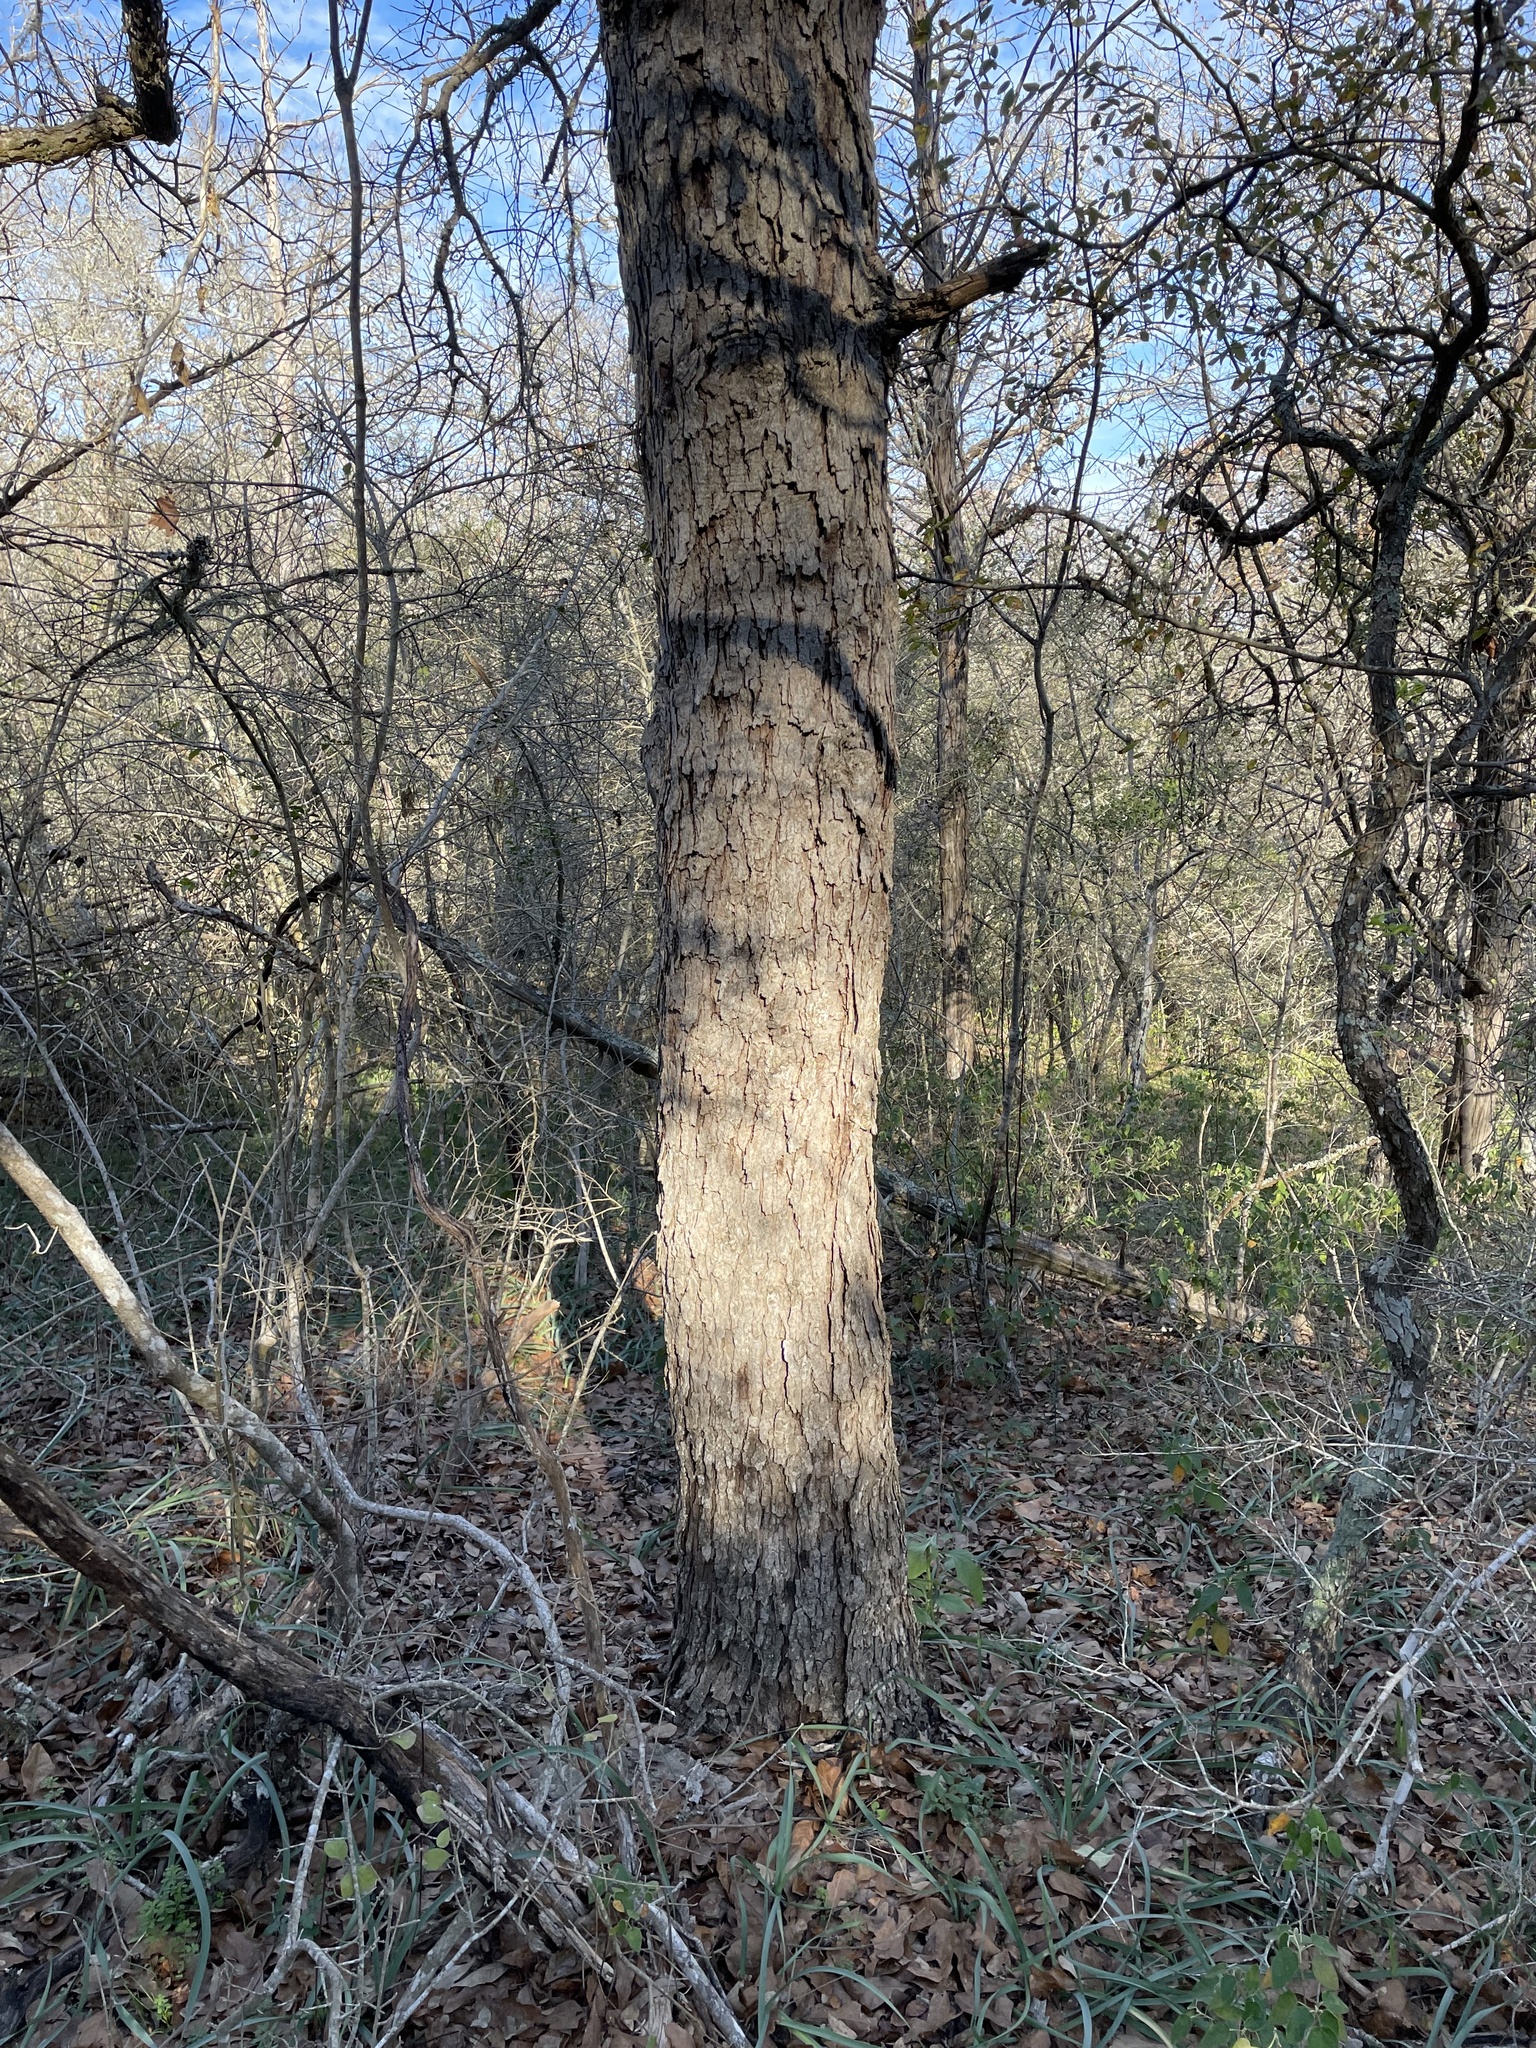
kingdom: Plantae
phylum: Tracheophyta
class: Magnoliopsida
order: Fagales
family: Fagaceae
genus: Quercus
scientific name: Quercus sinuata
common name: Durand oak
